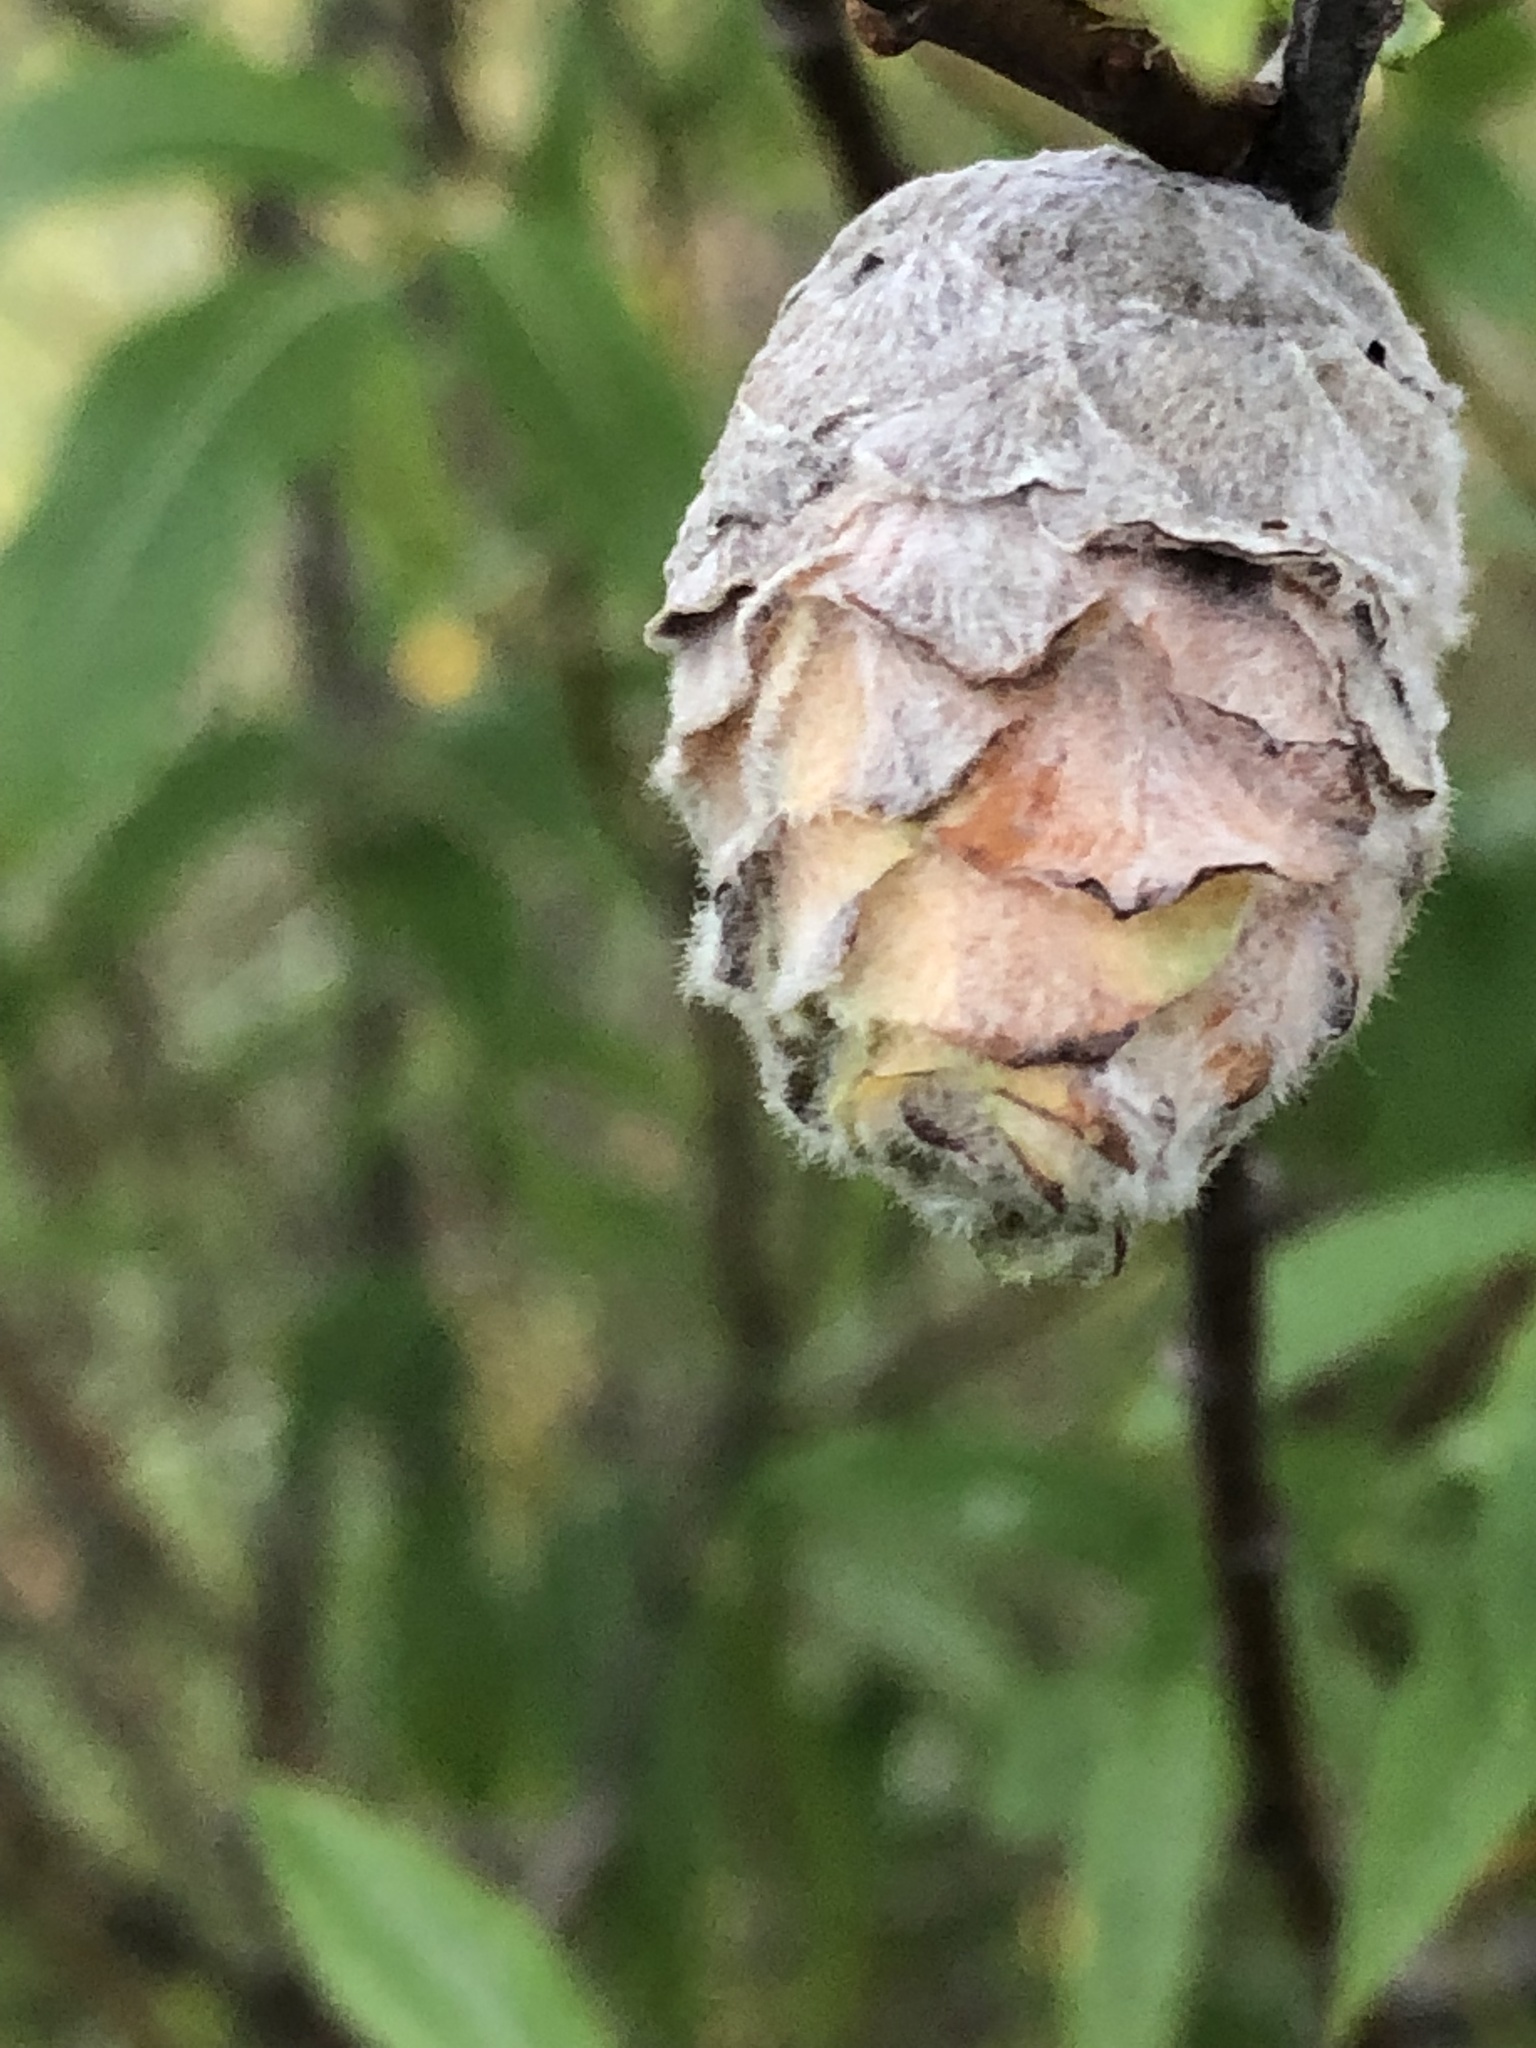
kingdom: Animalia
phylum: Arthropoda
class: Insecta
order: Diptera
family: Cecidomyiidae
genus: Rabdophaga
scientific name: Rabdophaga strobiloides
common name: Willow pinecone gall midge
